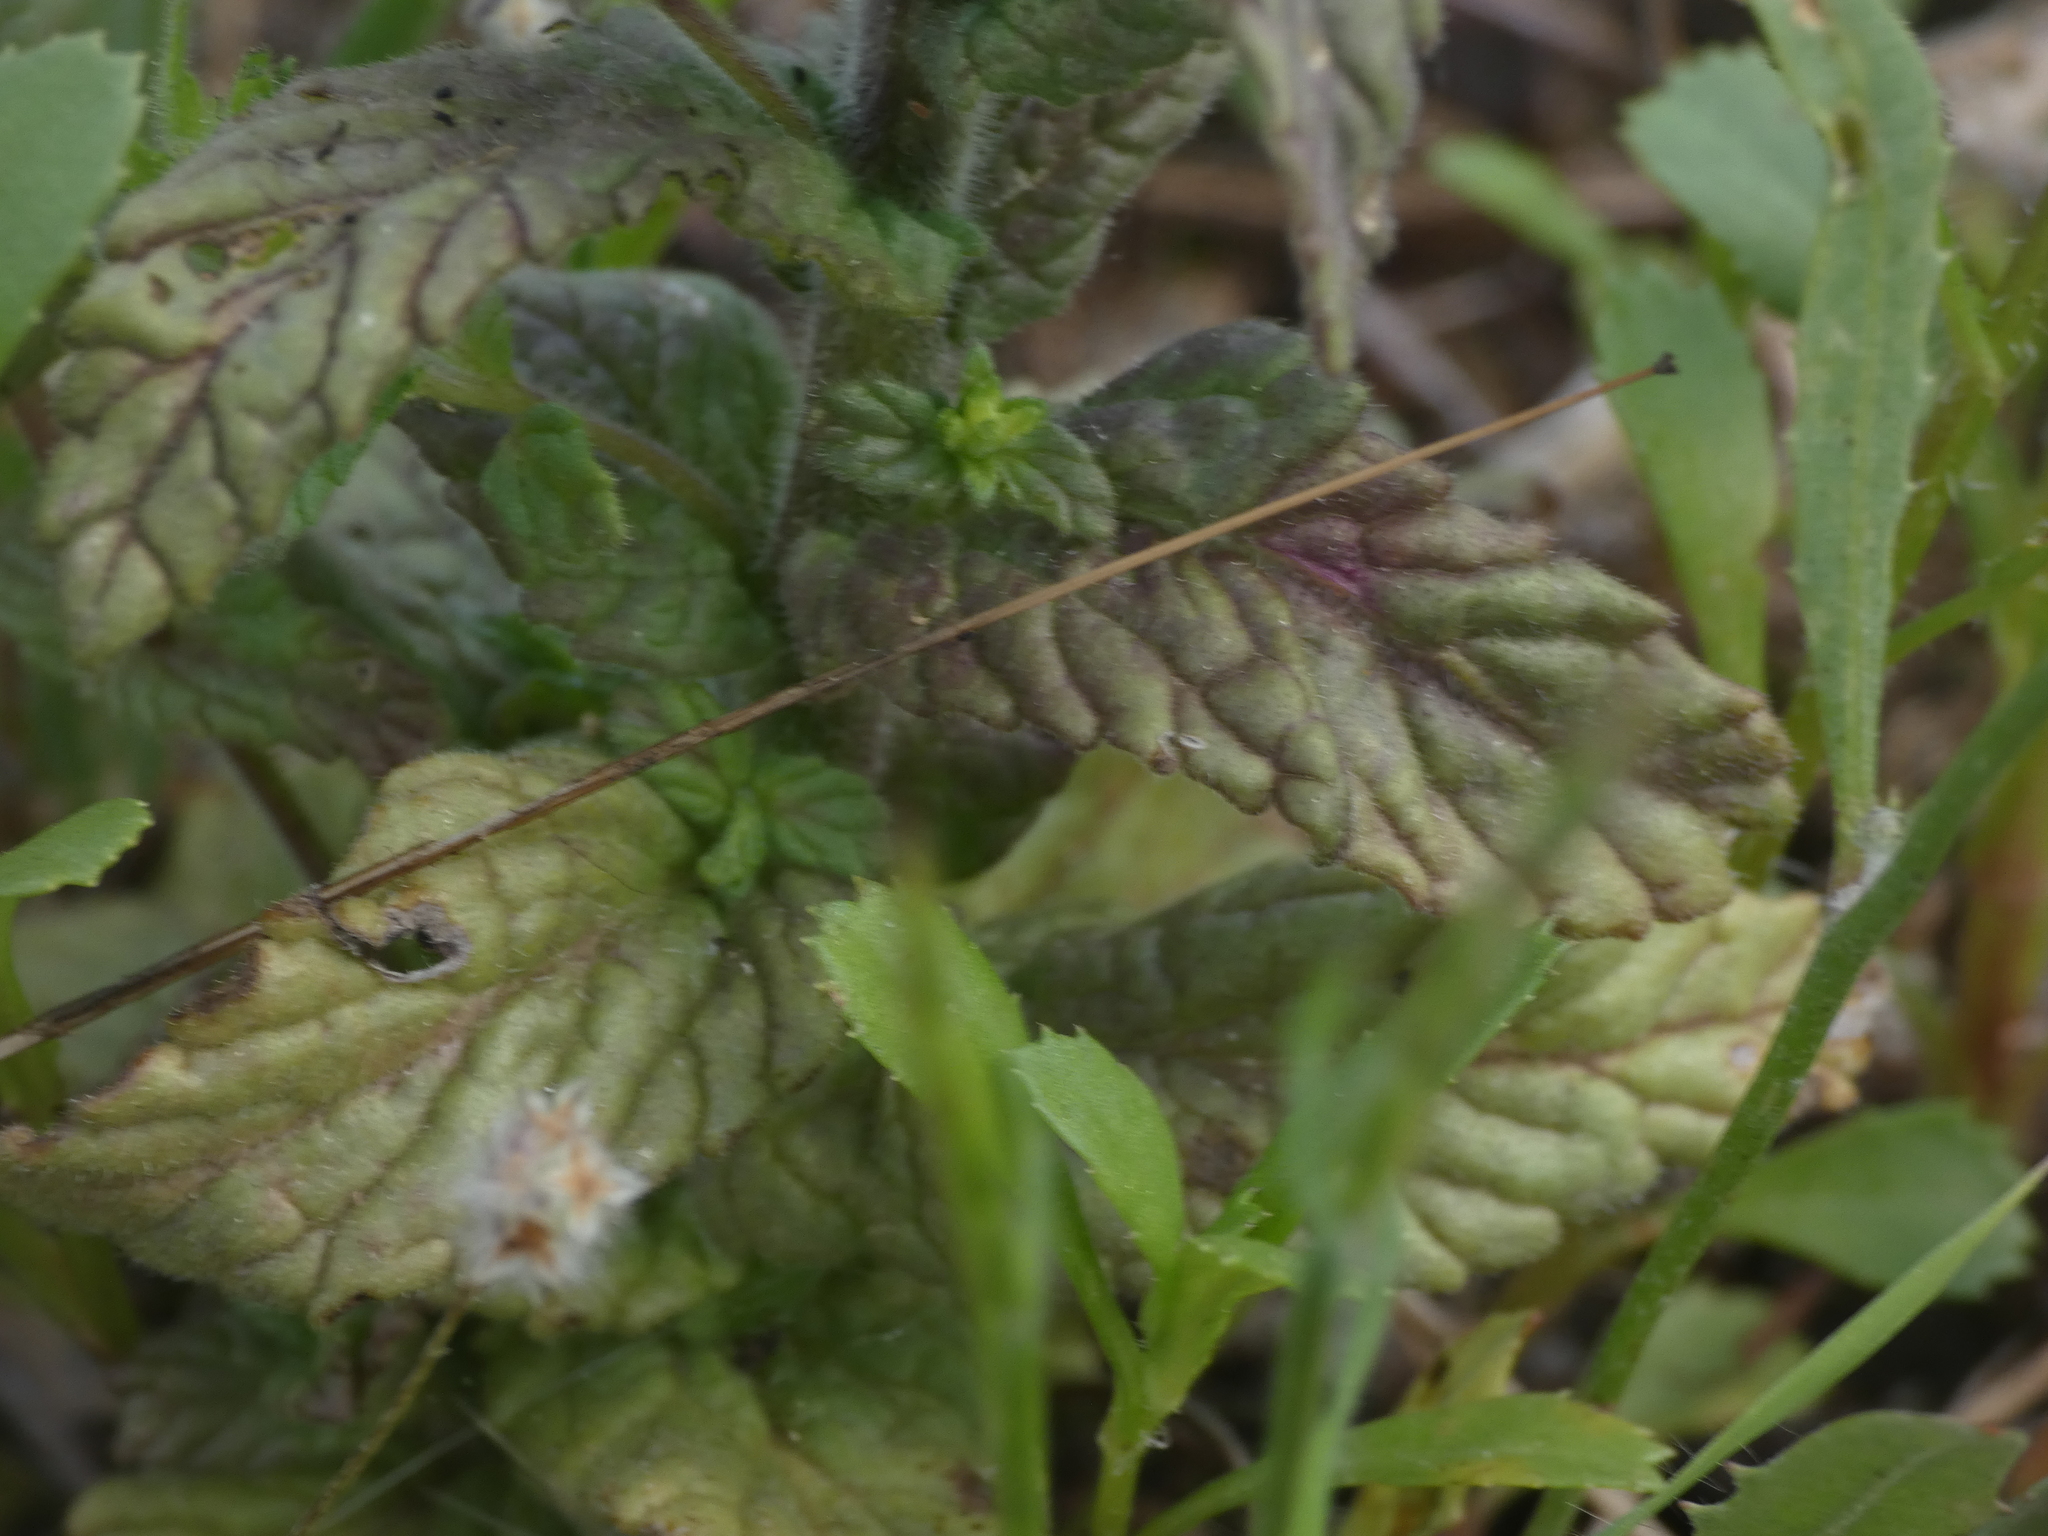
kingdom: Plantae
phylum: Tracheophyta
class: Magnoliopsida
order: Lamiales
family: Orobanchaceae
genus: Bellardia
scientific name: Bellardia viscosa
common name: Sticky parentucellia
